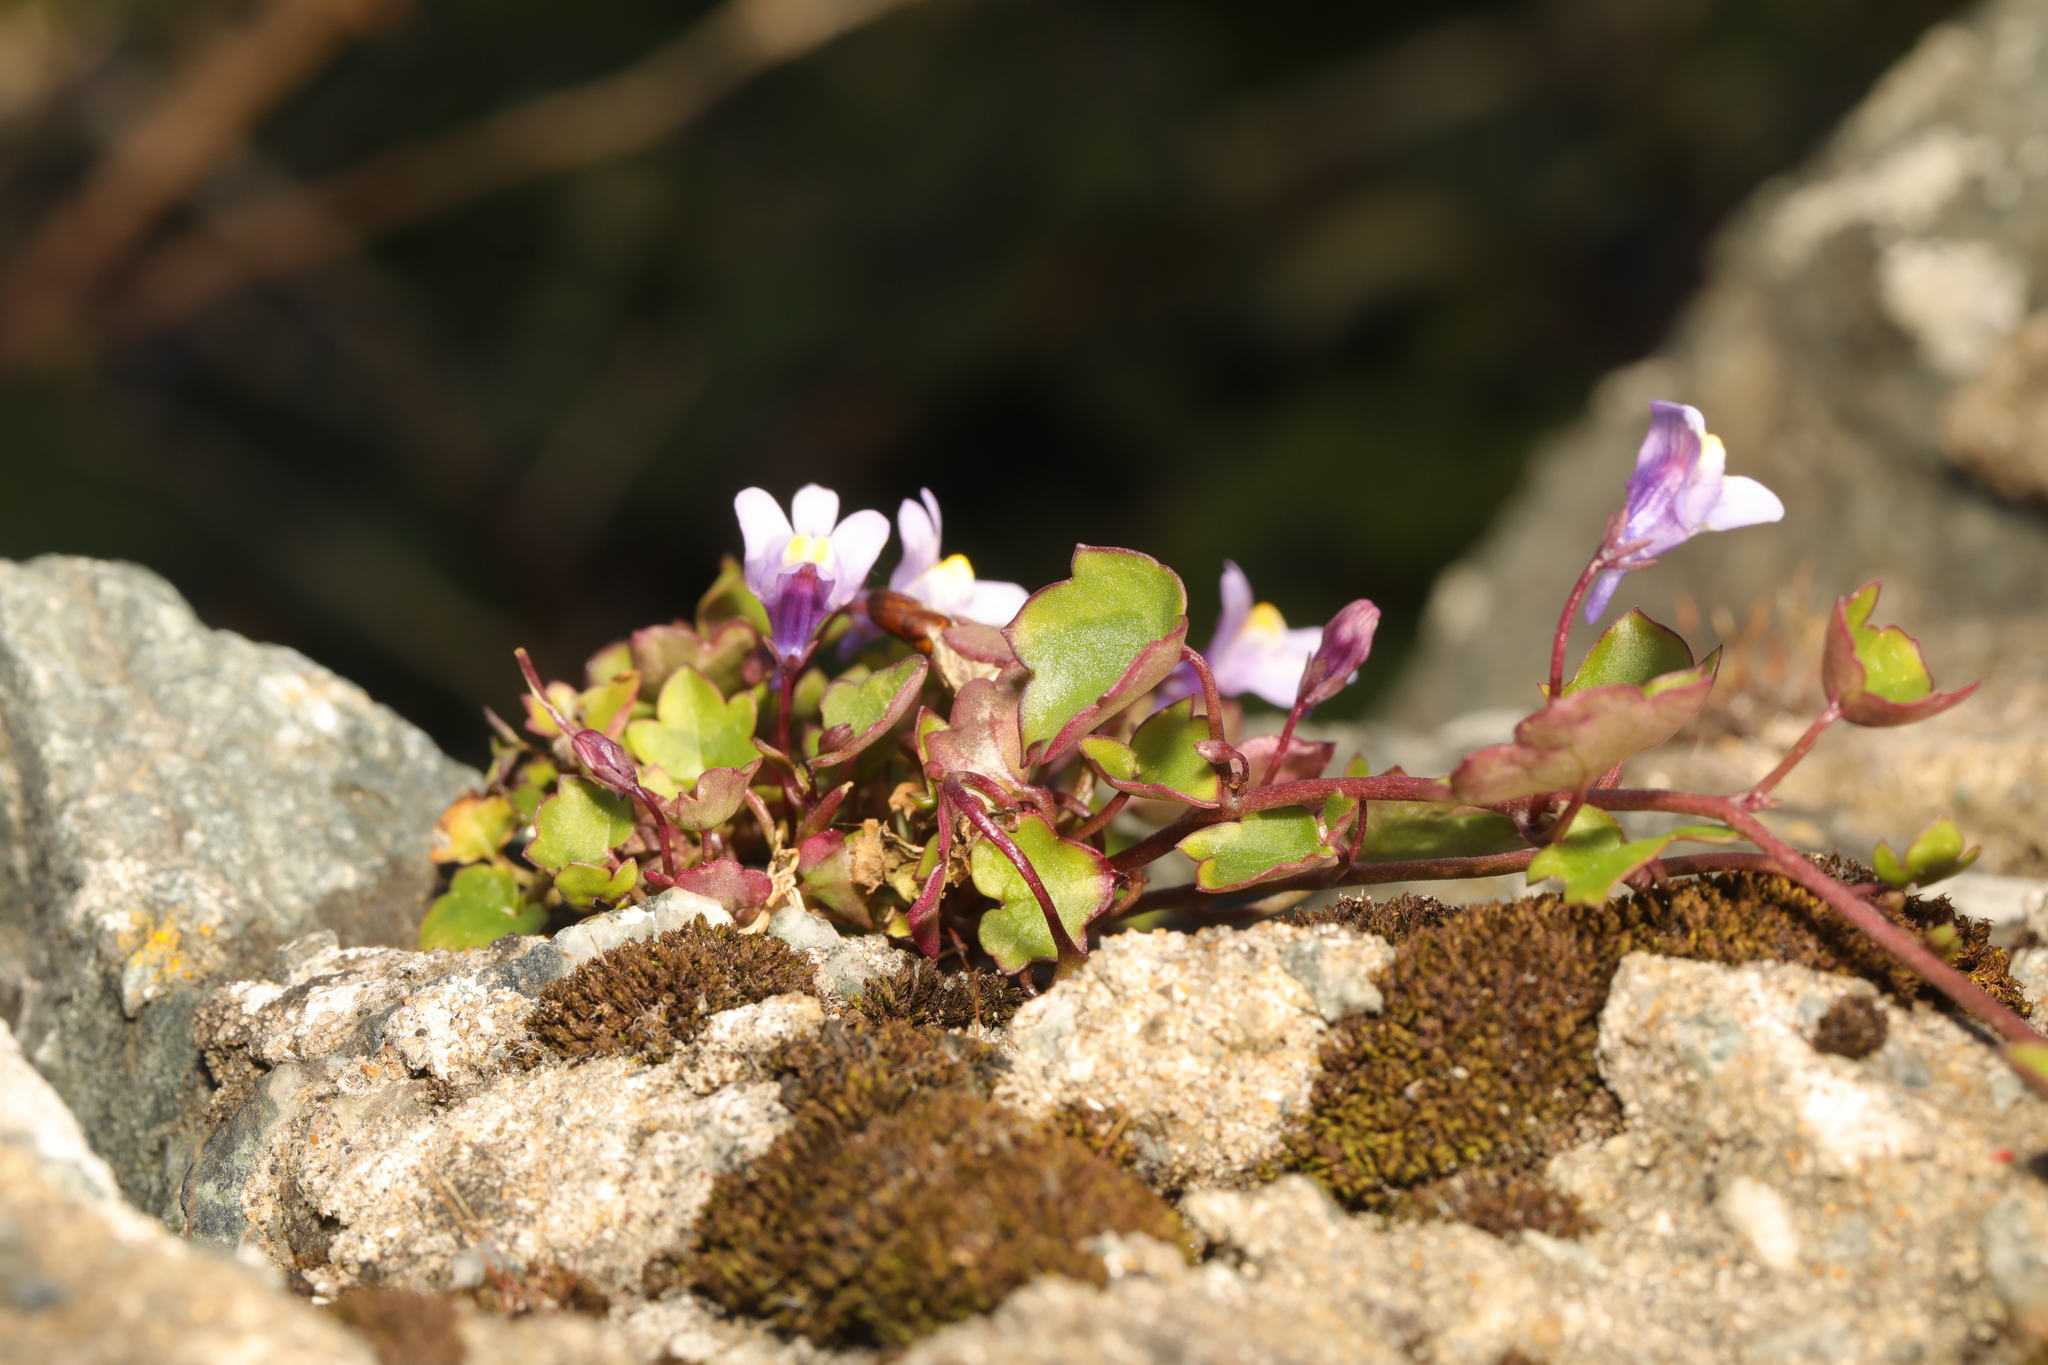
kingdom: Plantae
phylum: Tracheophyta
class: Magnoliopsida
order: Lamiales
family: Plantaginaceae
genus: Cymbalaria
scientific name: Cymbalaria muralis
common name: Ivy-leaved toadflax
